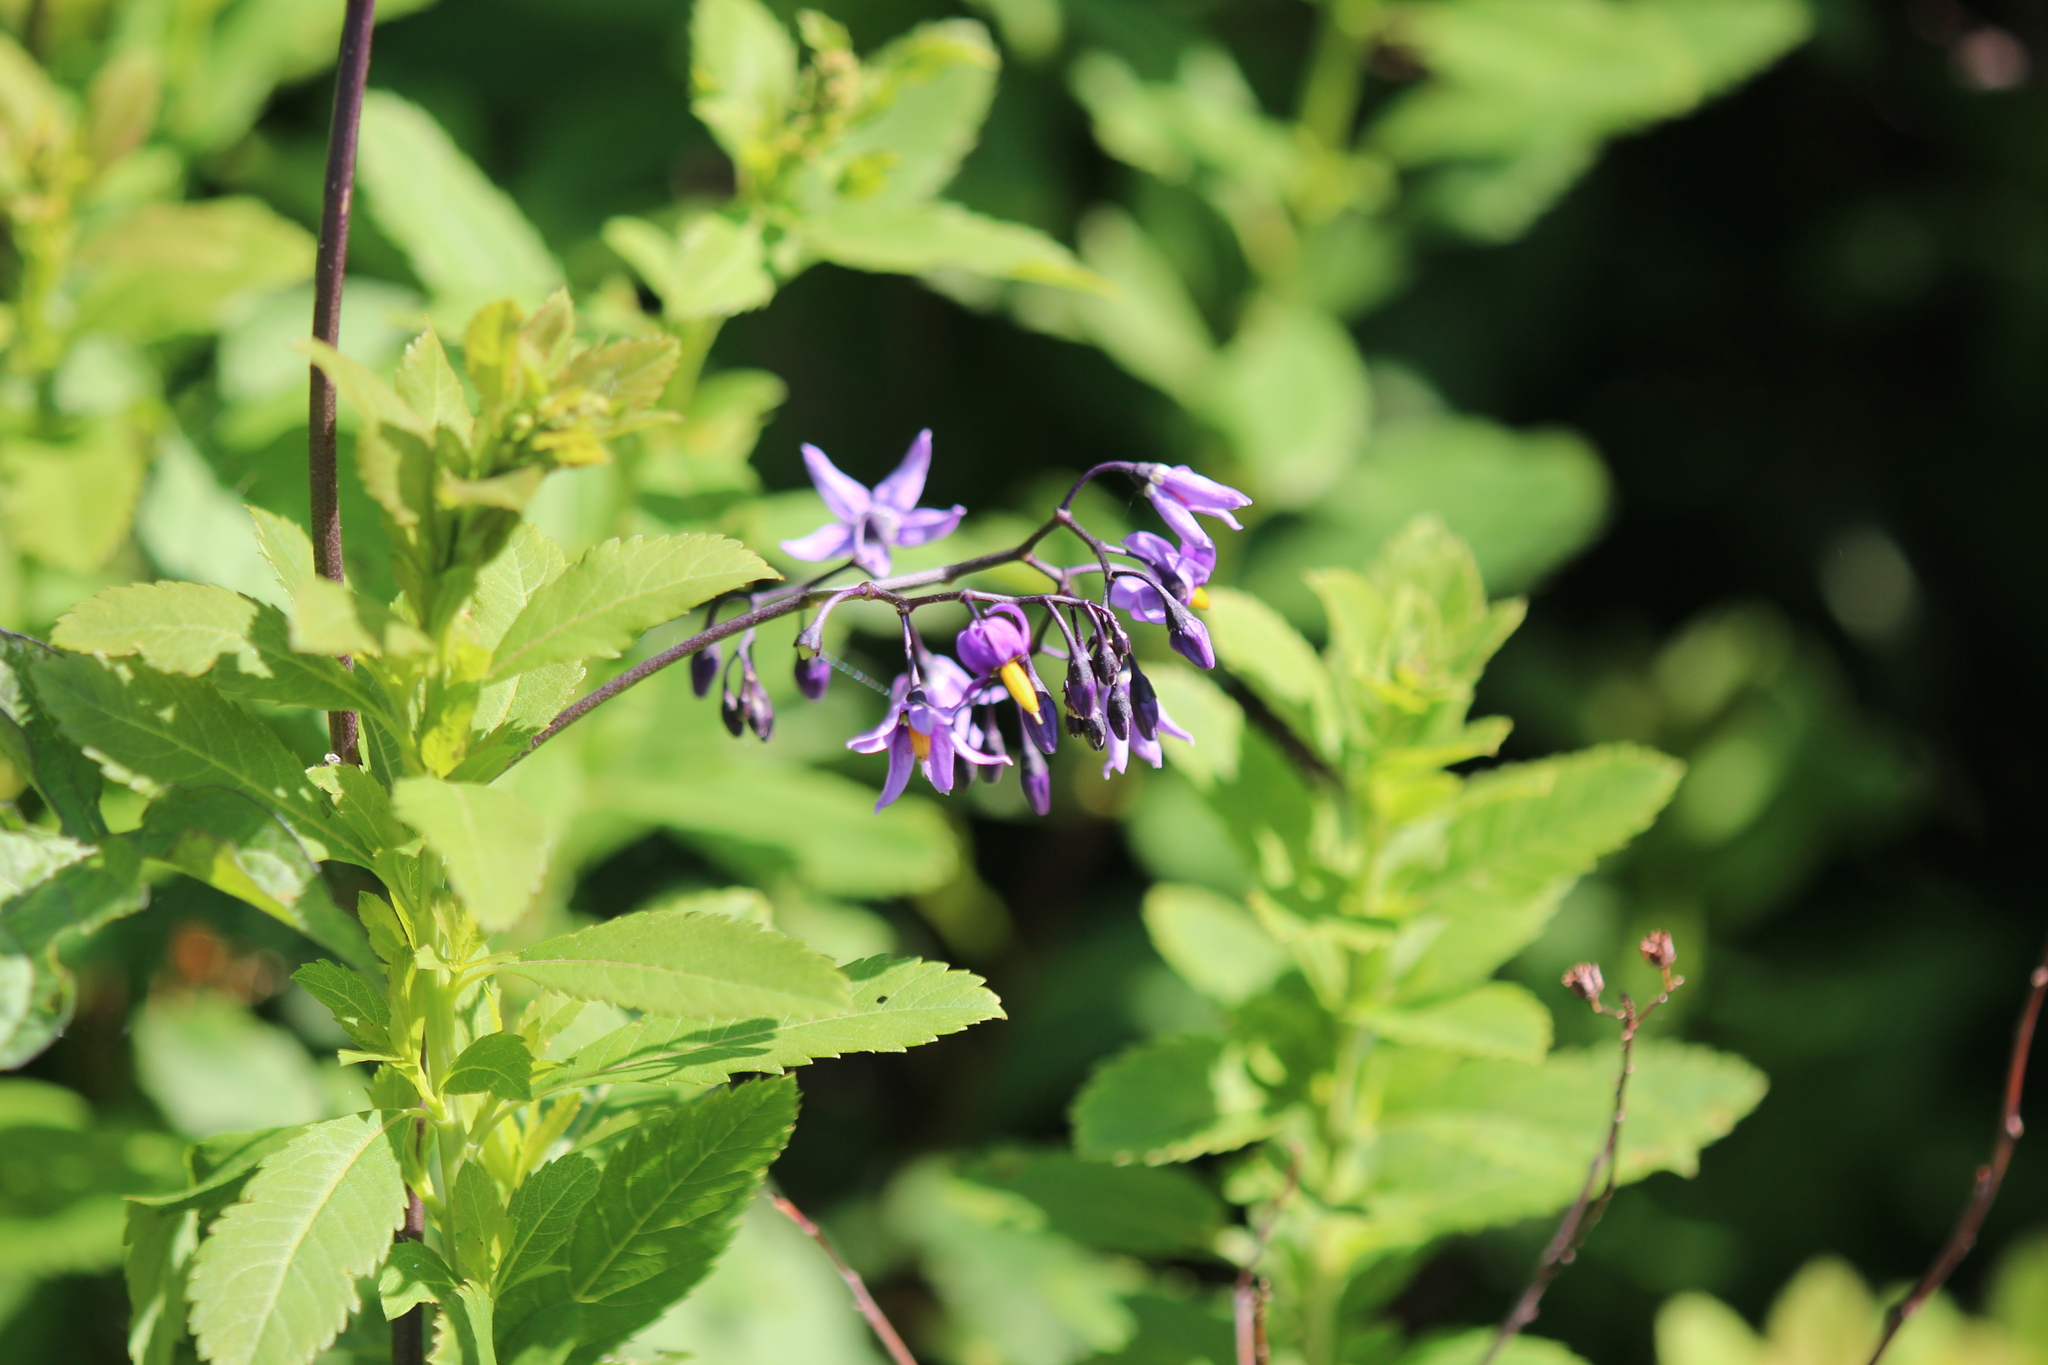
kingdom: Plantae
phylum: Tracheophyta
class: Magnoliopsida
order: Solanales
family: Solanaceae
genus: Solanum
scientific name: Solanum dulcamara
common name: Climbing nightshade
